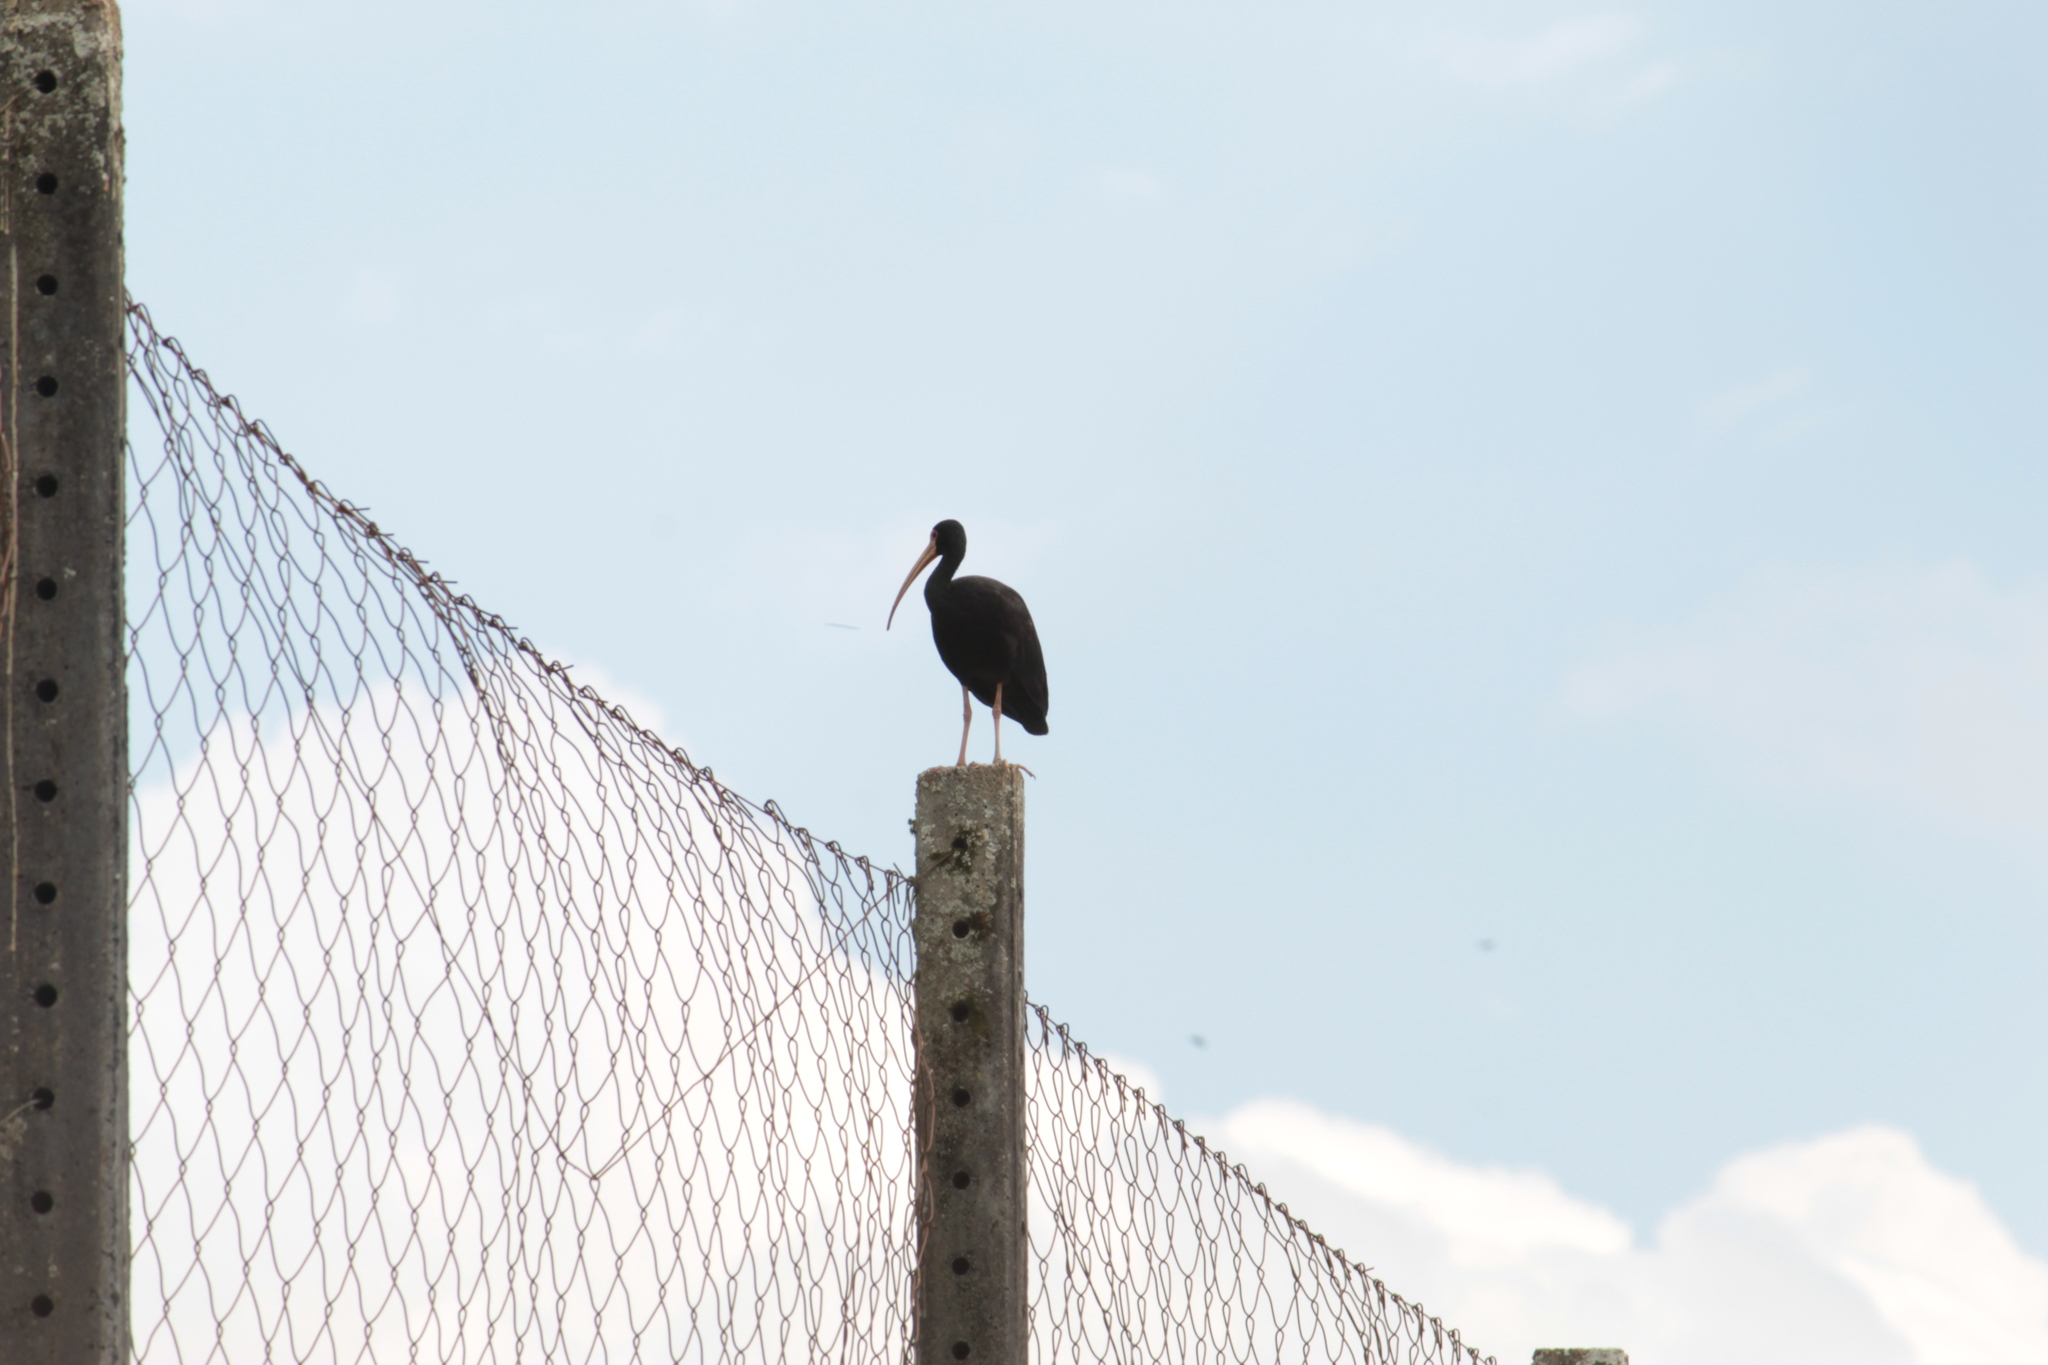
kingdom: Animalia
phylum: Chordata
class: Aves
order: Pelecaniformes
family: Threskiornithidae
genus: Phimosus
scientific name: Phimosus infuscatus
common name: Bare-faced ibis
